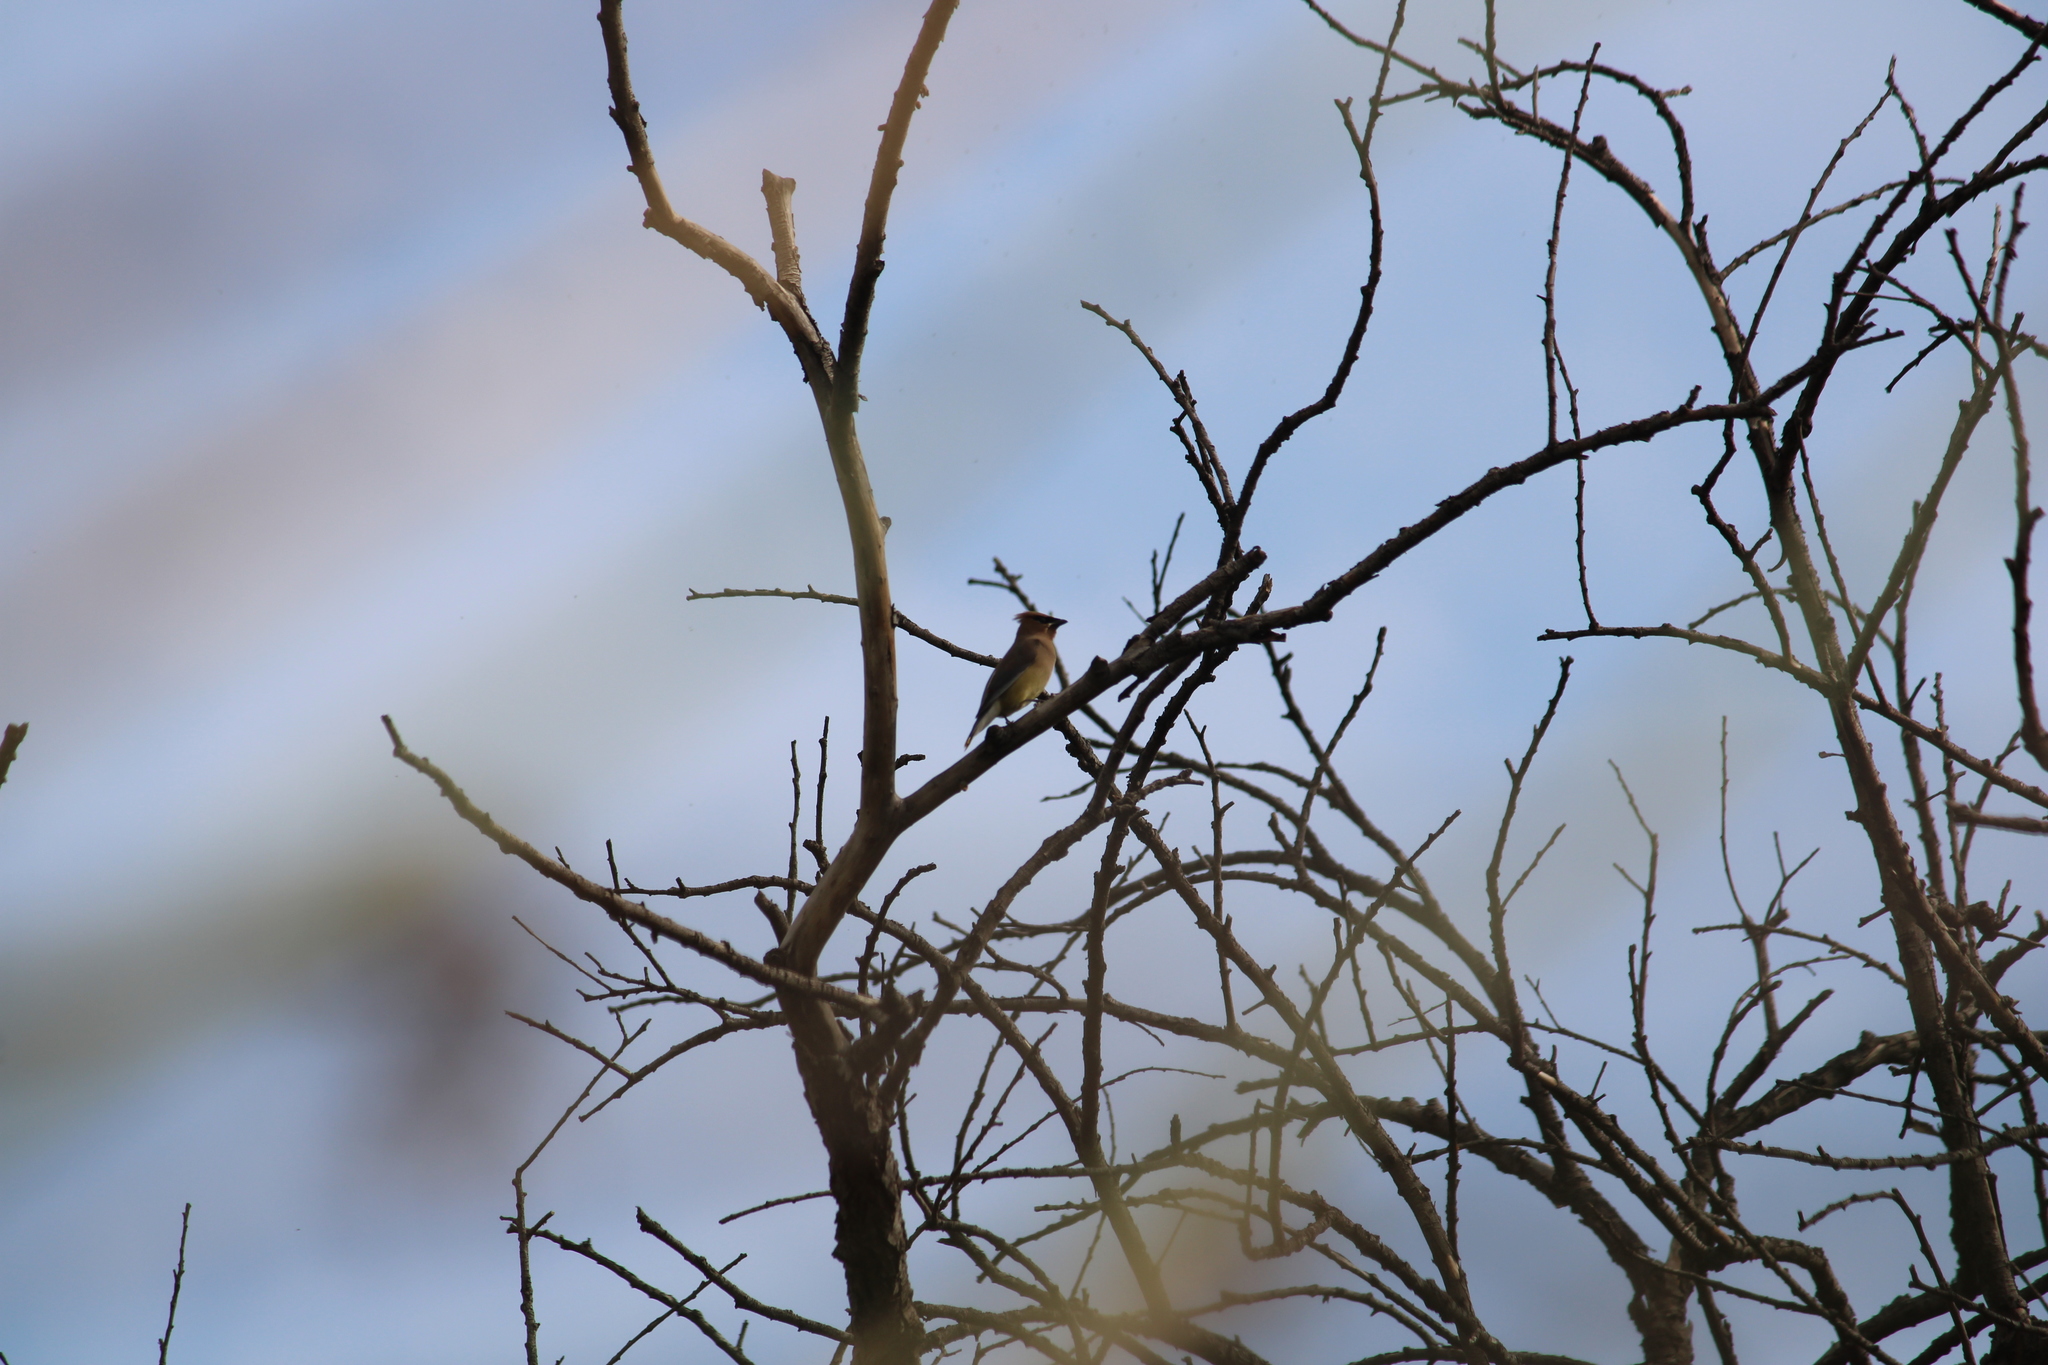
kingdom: Animalia
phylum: Chordata
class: Aves
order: Passeriformes
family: Bombycillidae
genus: Bombycilla
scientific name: Bombycilla cedrorum
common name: Cedar waxwing
